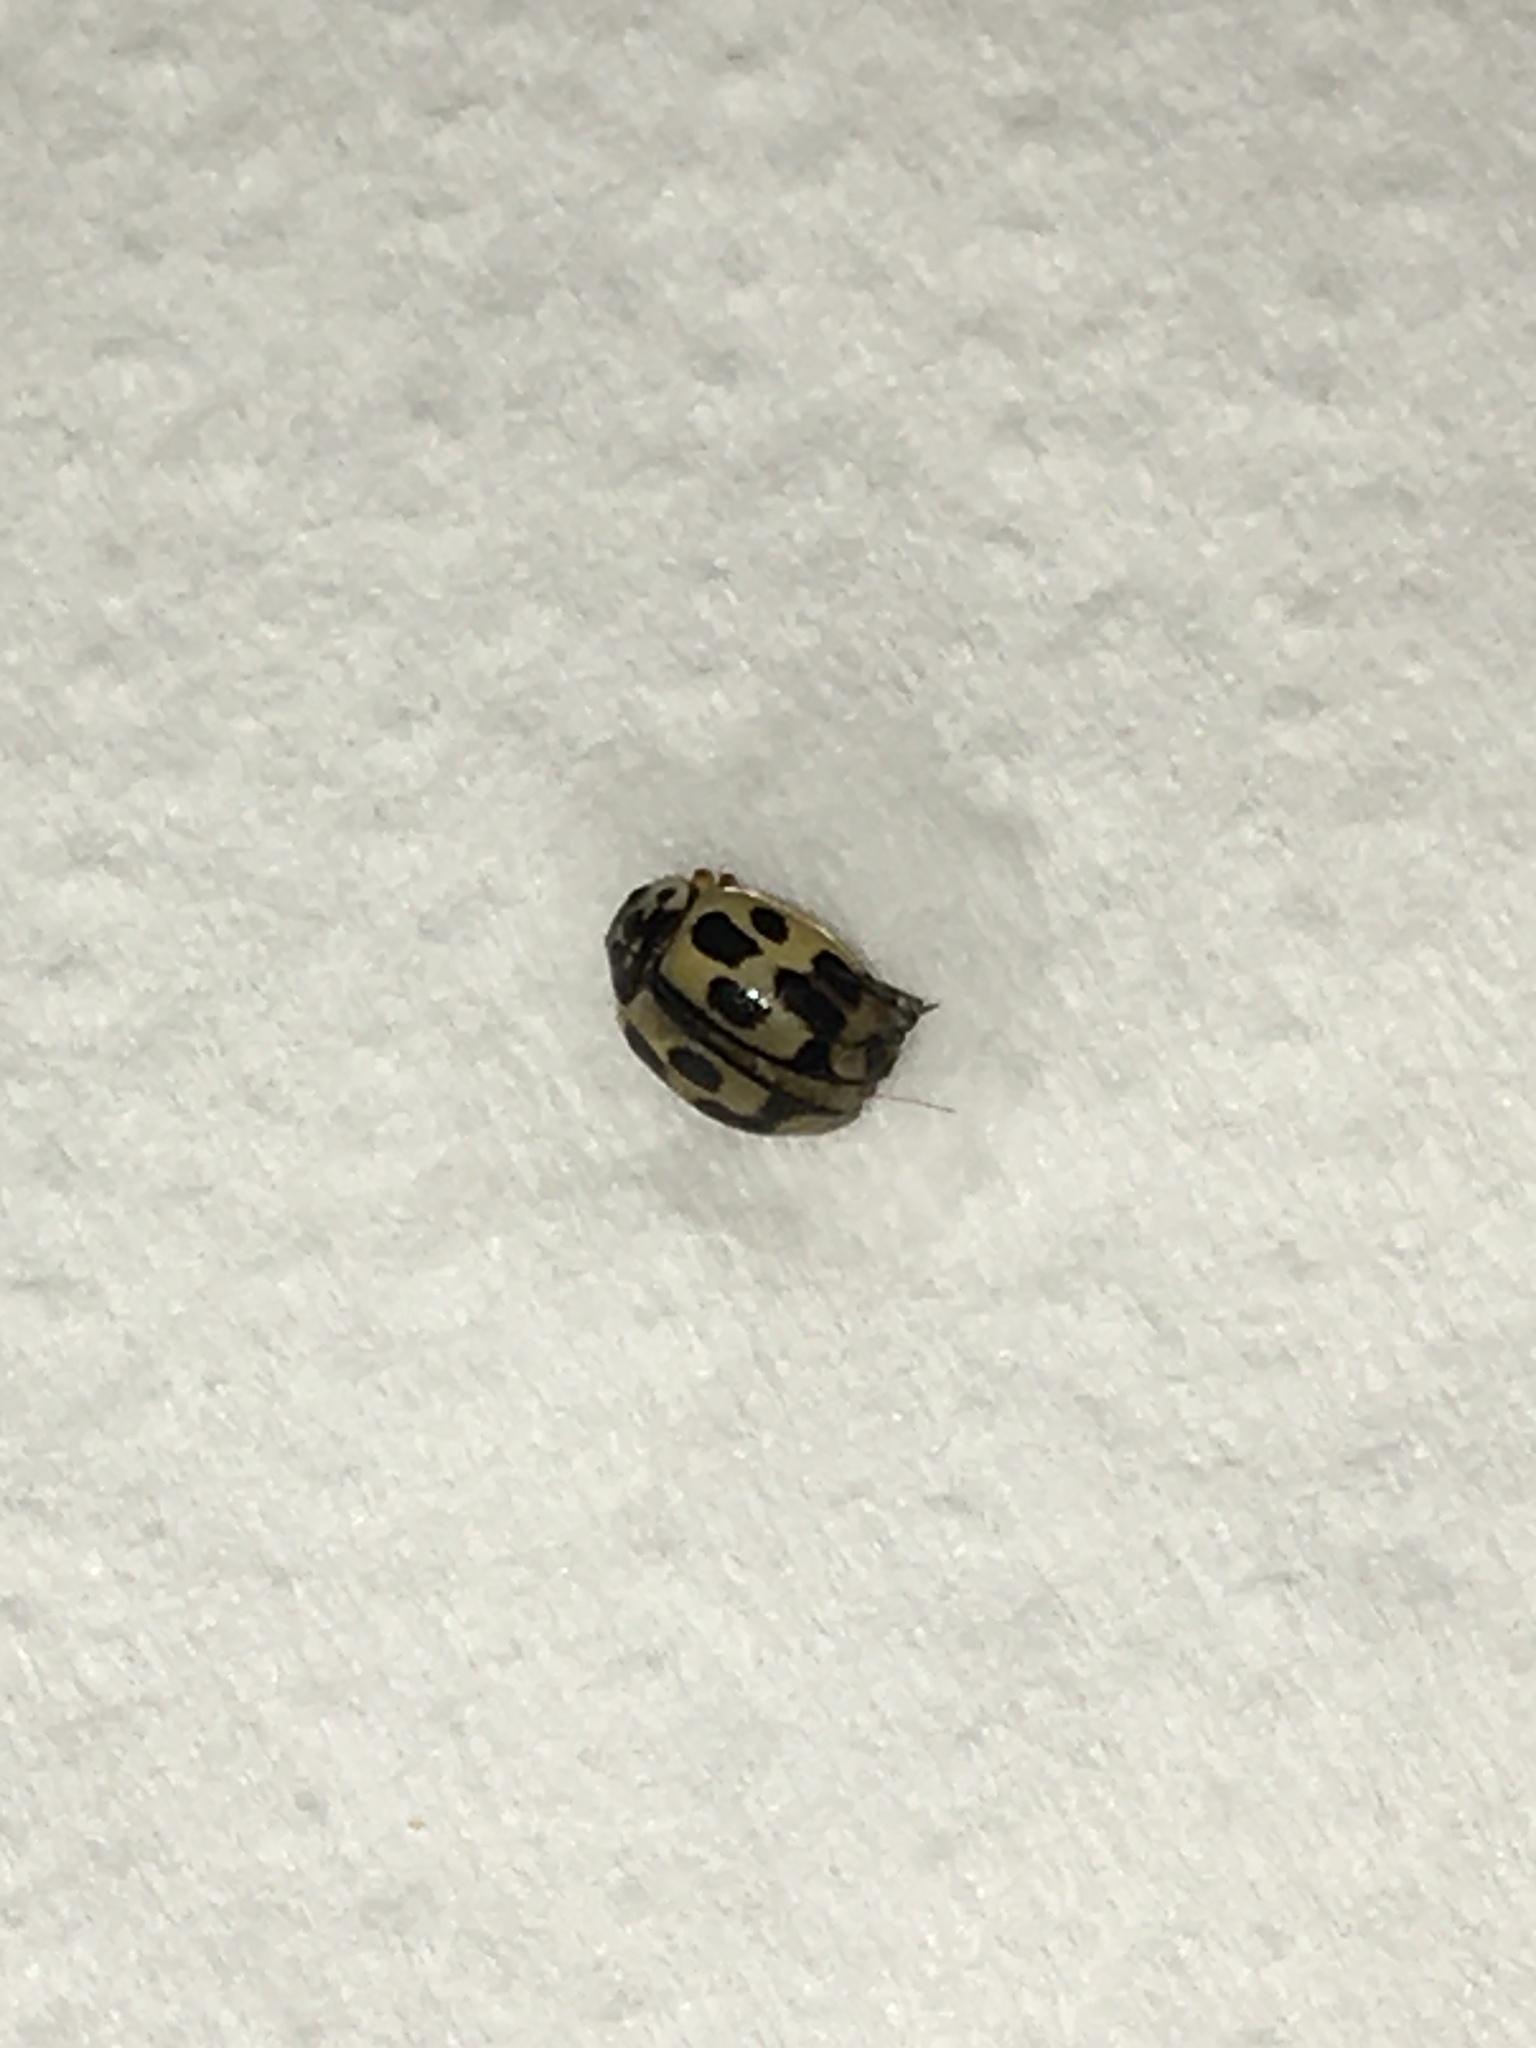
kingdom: Animalia
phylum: Arthropoda
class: Insecta
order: Coleoptera
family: Coccinellidae
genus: Propylaea
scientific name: Propylaea quatuordecimpunctata
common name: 14-spotted ladybird beetle
